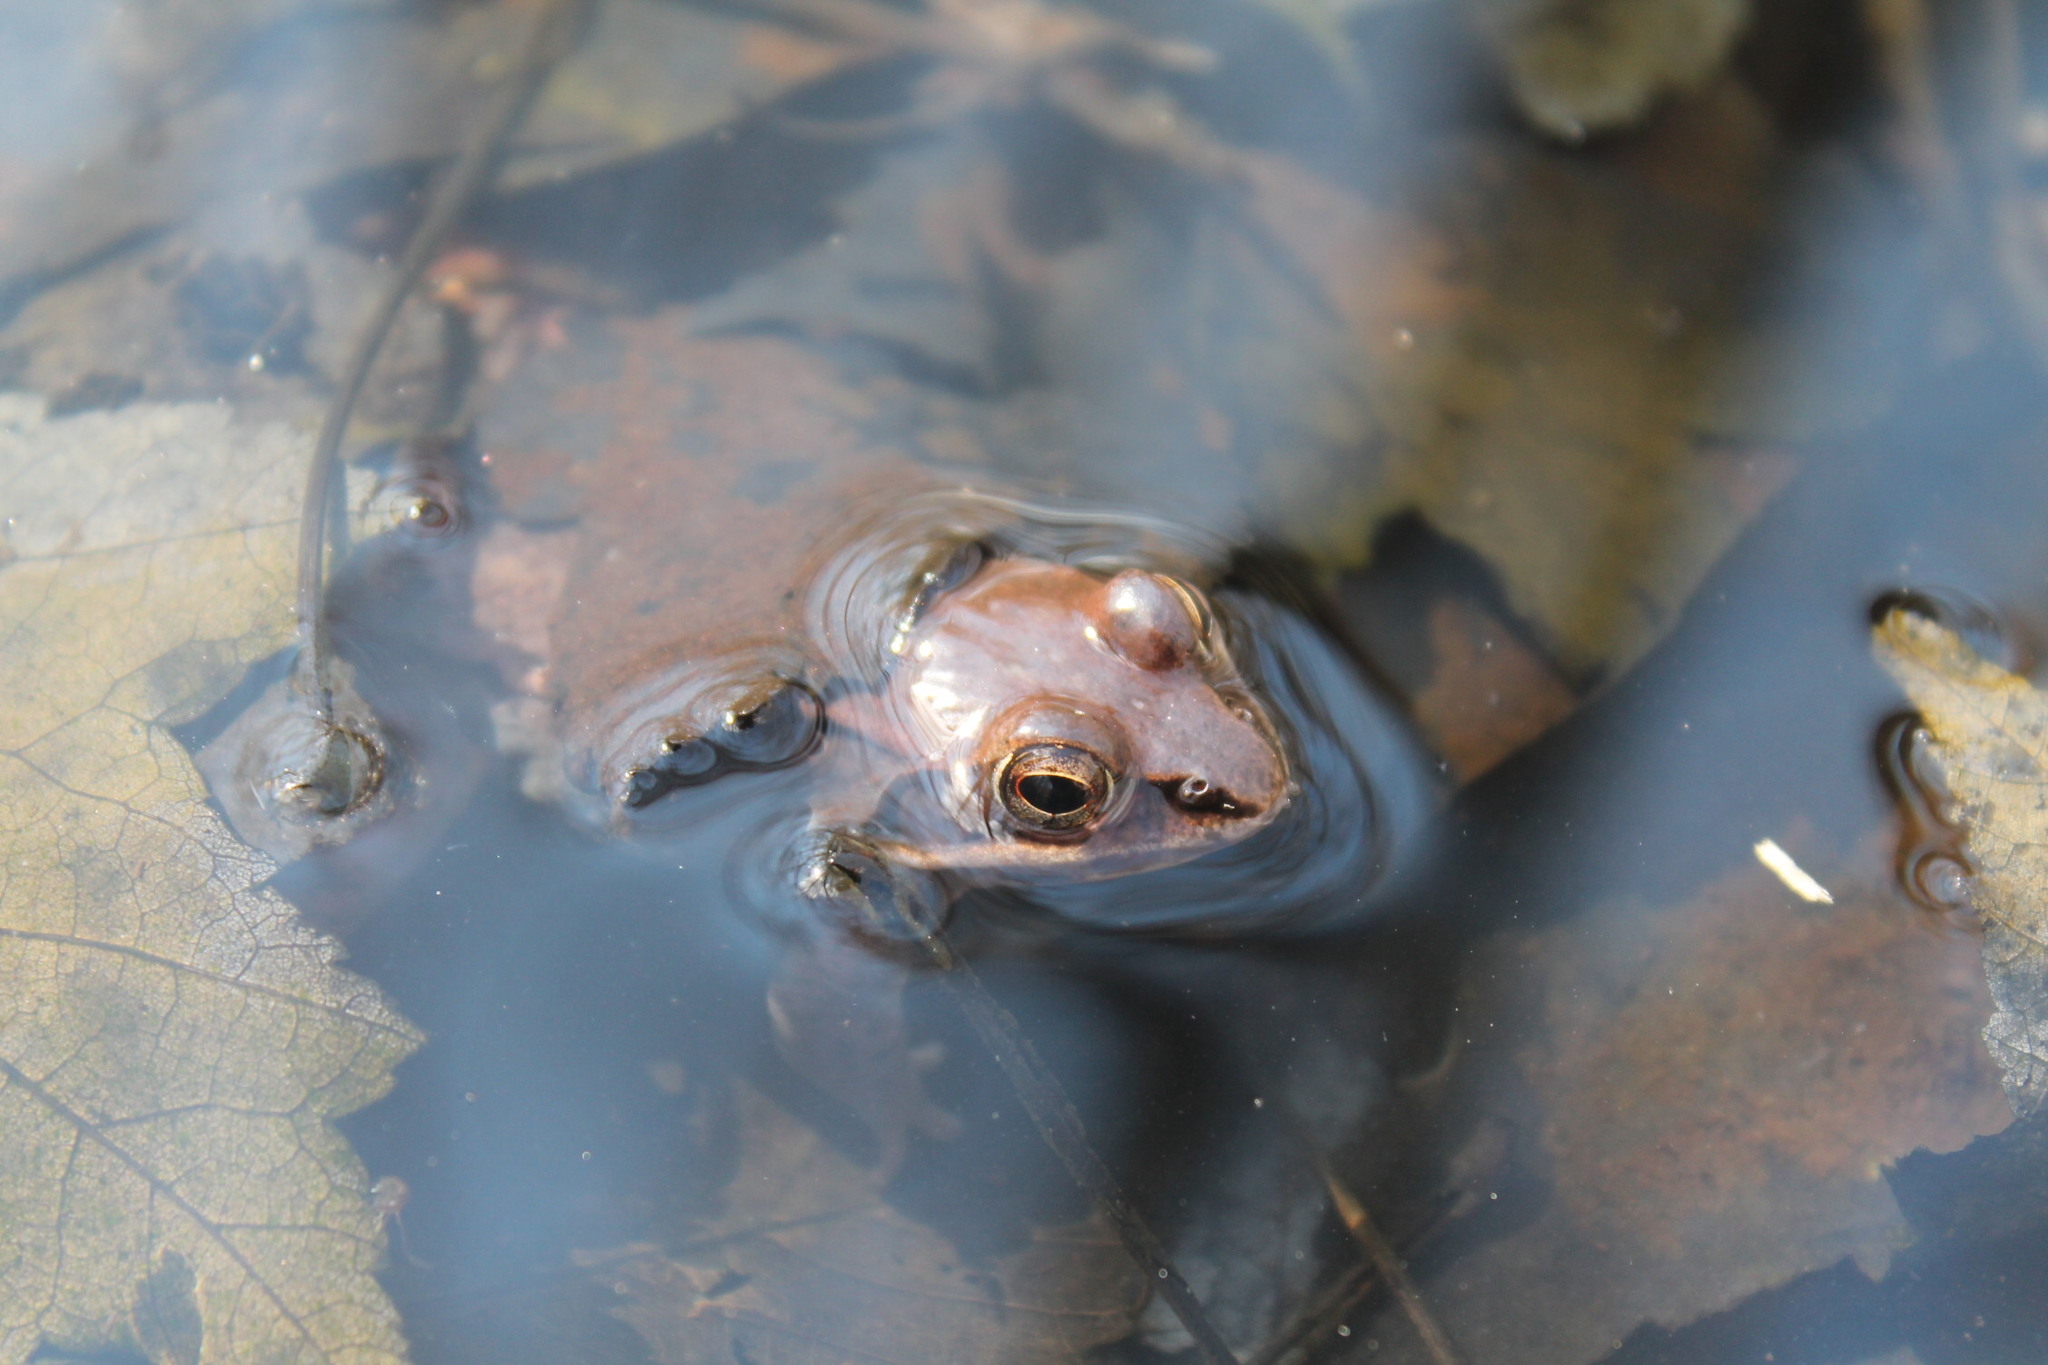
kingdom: Animalia
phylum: Chordata
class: Amphibia
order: Anura
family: Ranidae
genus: Lithobates
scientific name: Lithobates sylvaticus
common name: Wood frog
